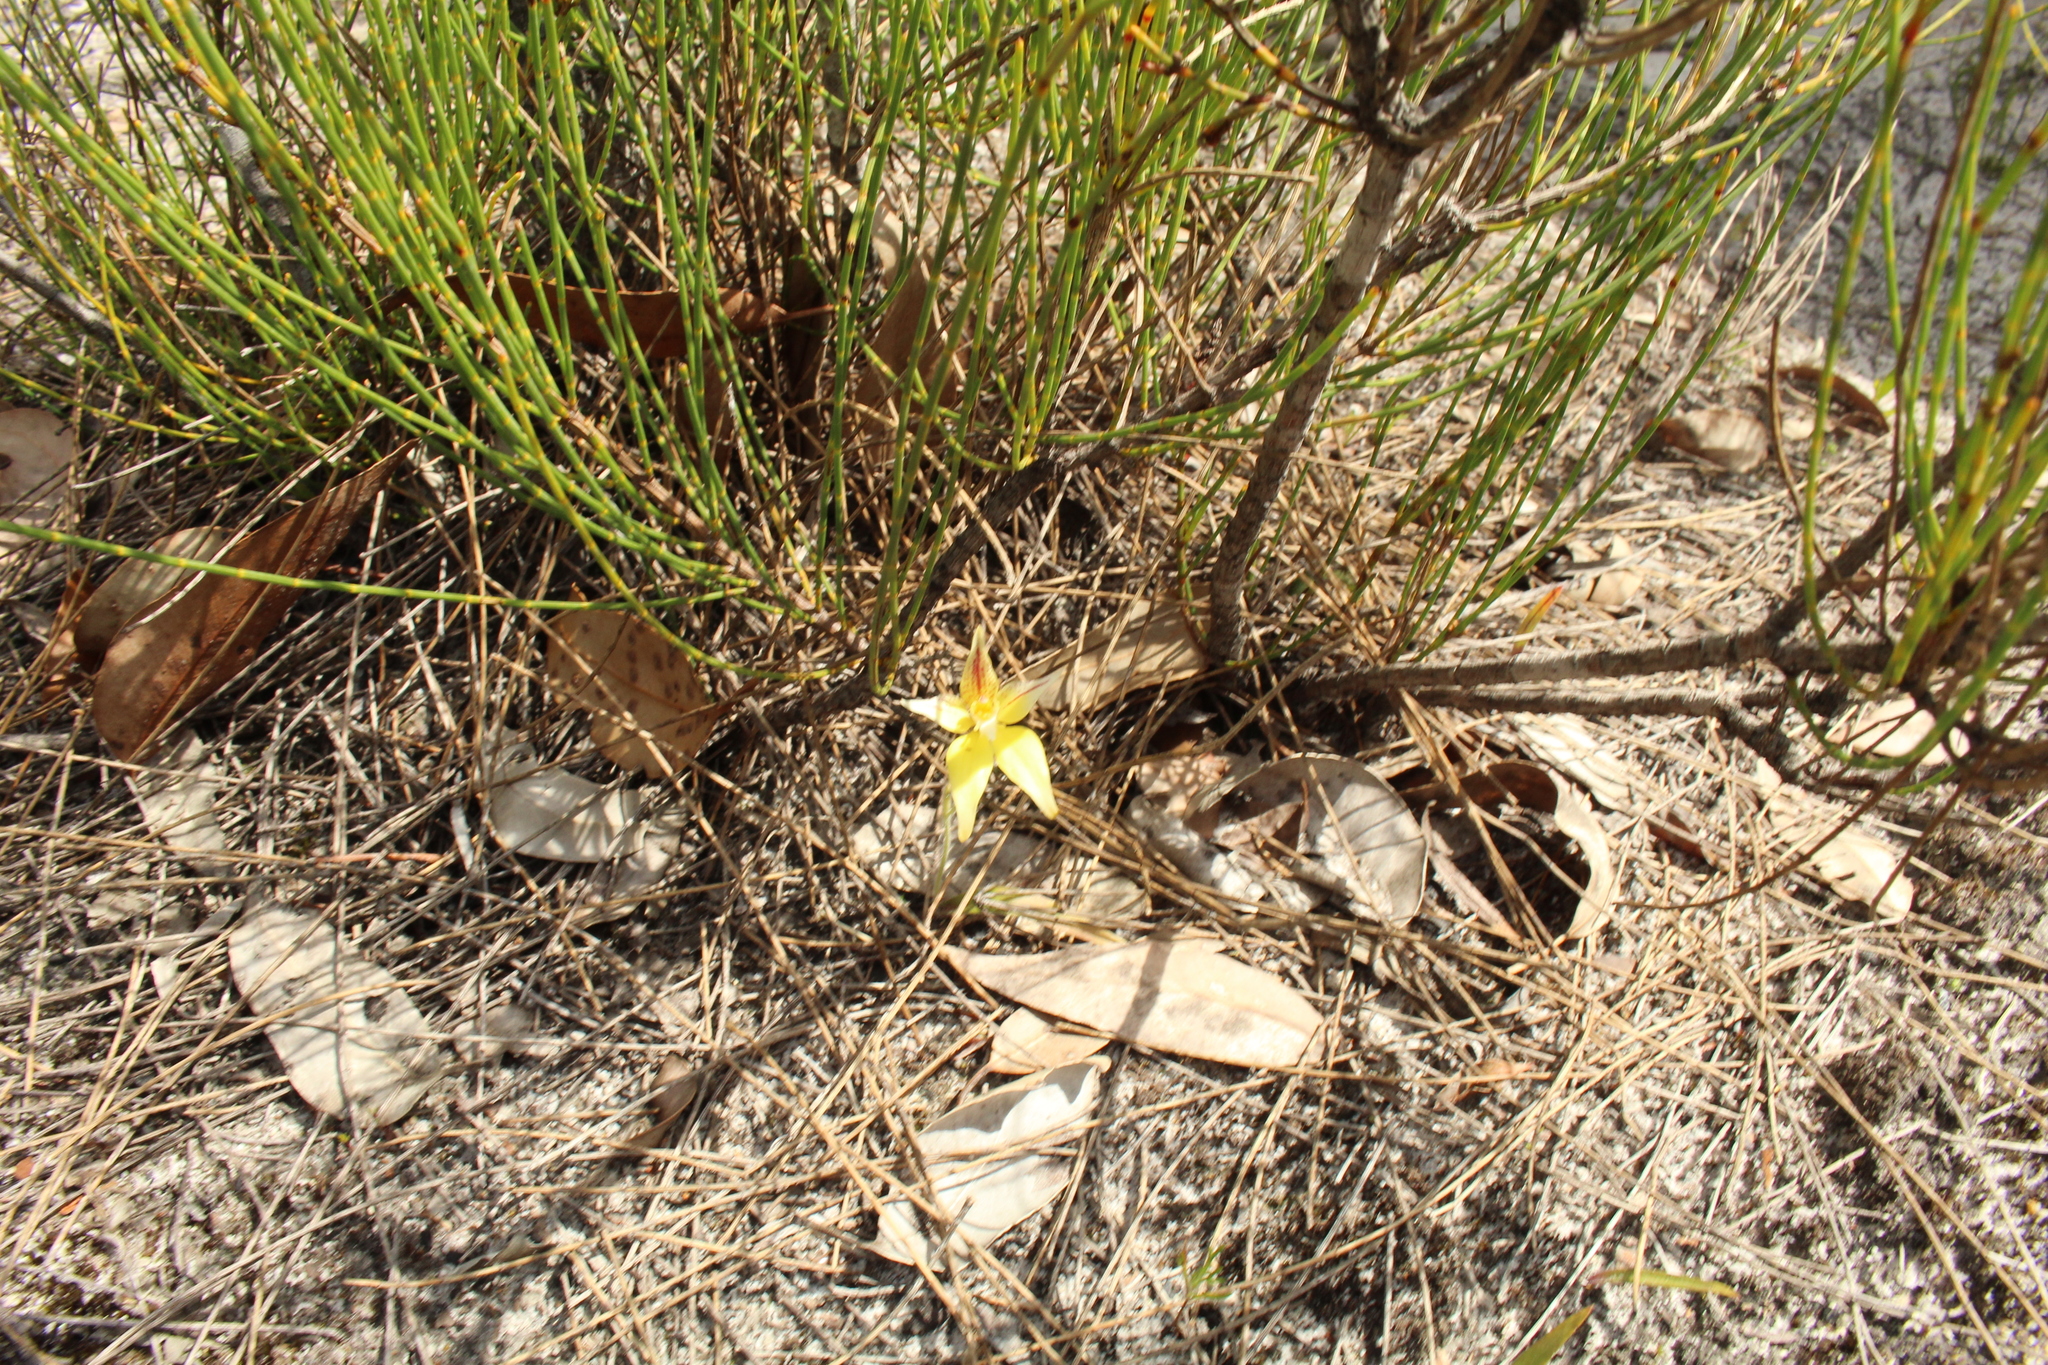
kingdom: Plantae
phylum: Tracheophyta
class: Liliopsida
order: Asparagales
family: Orchidaceae
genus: Caladenia
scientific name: Caladenia flava
